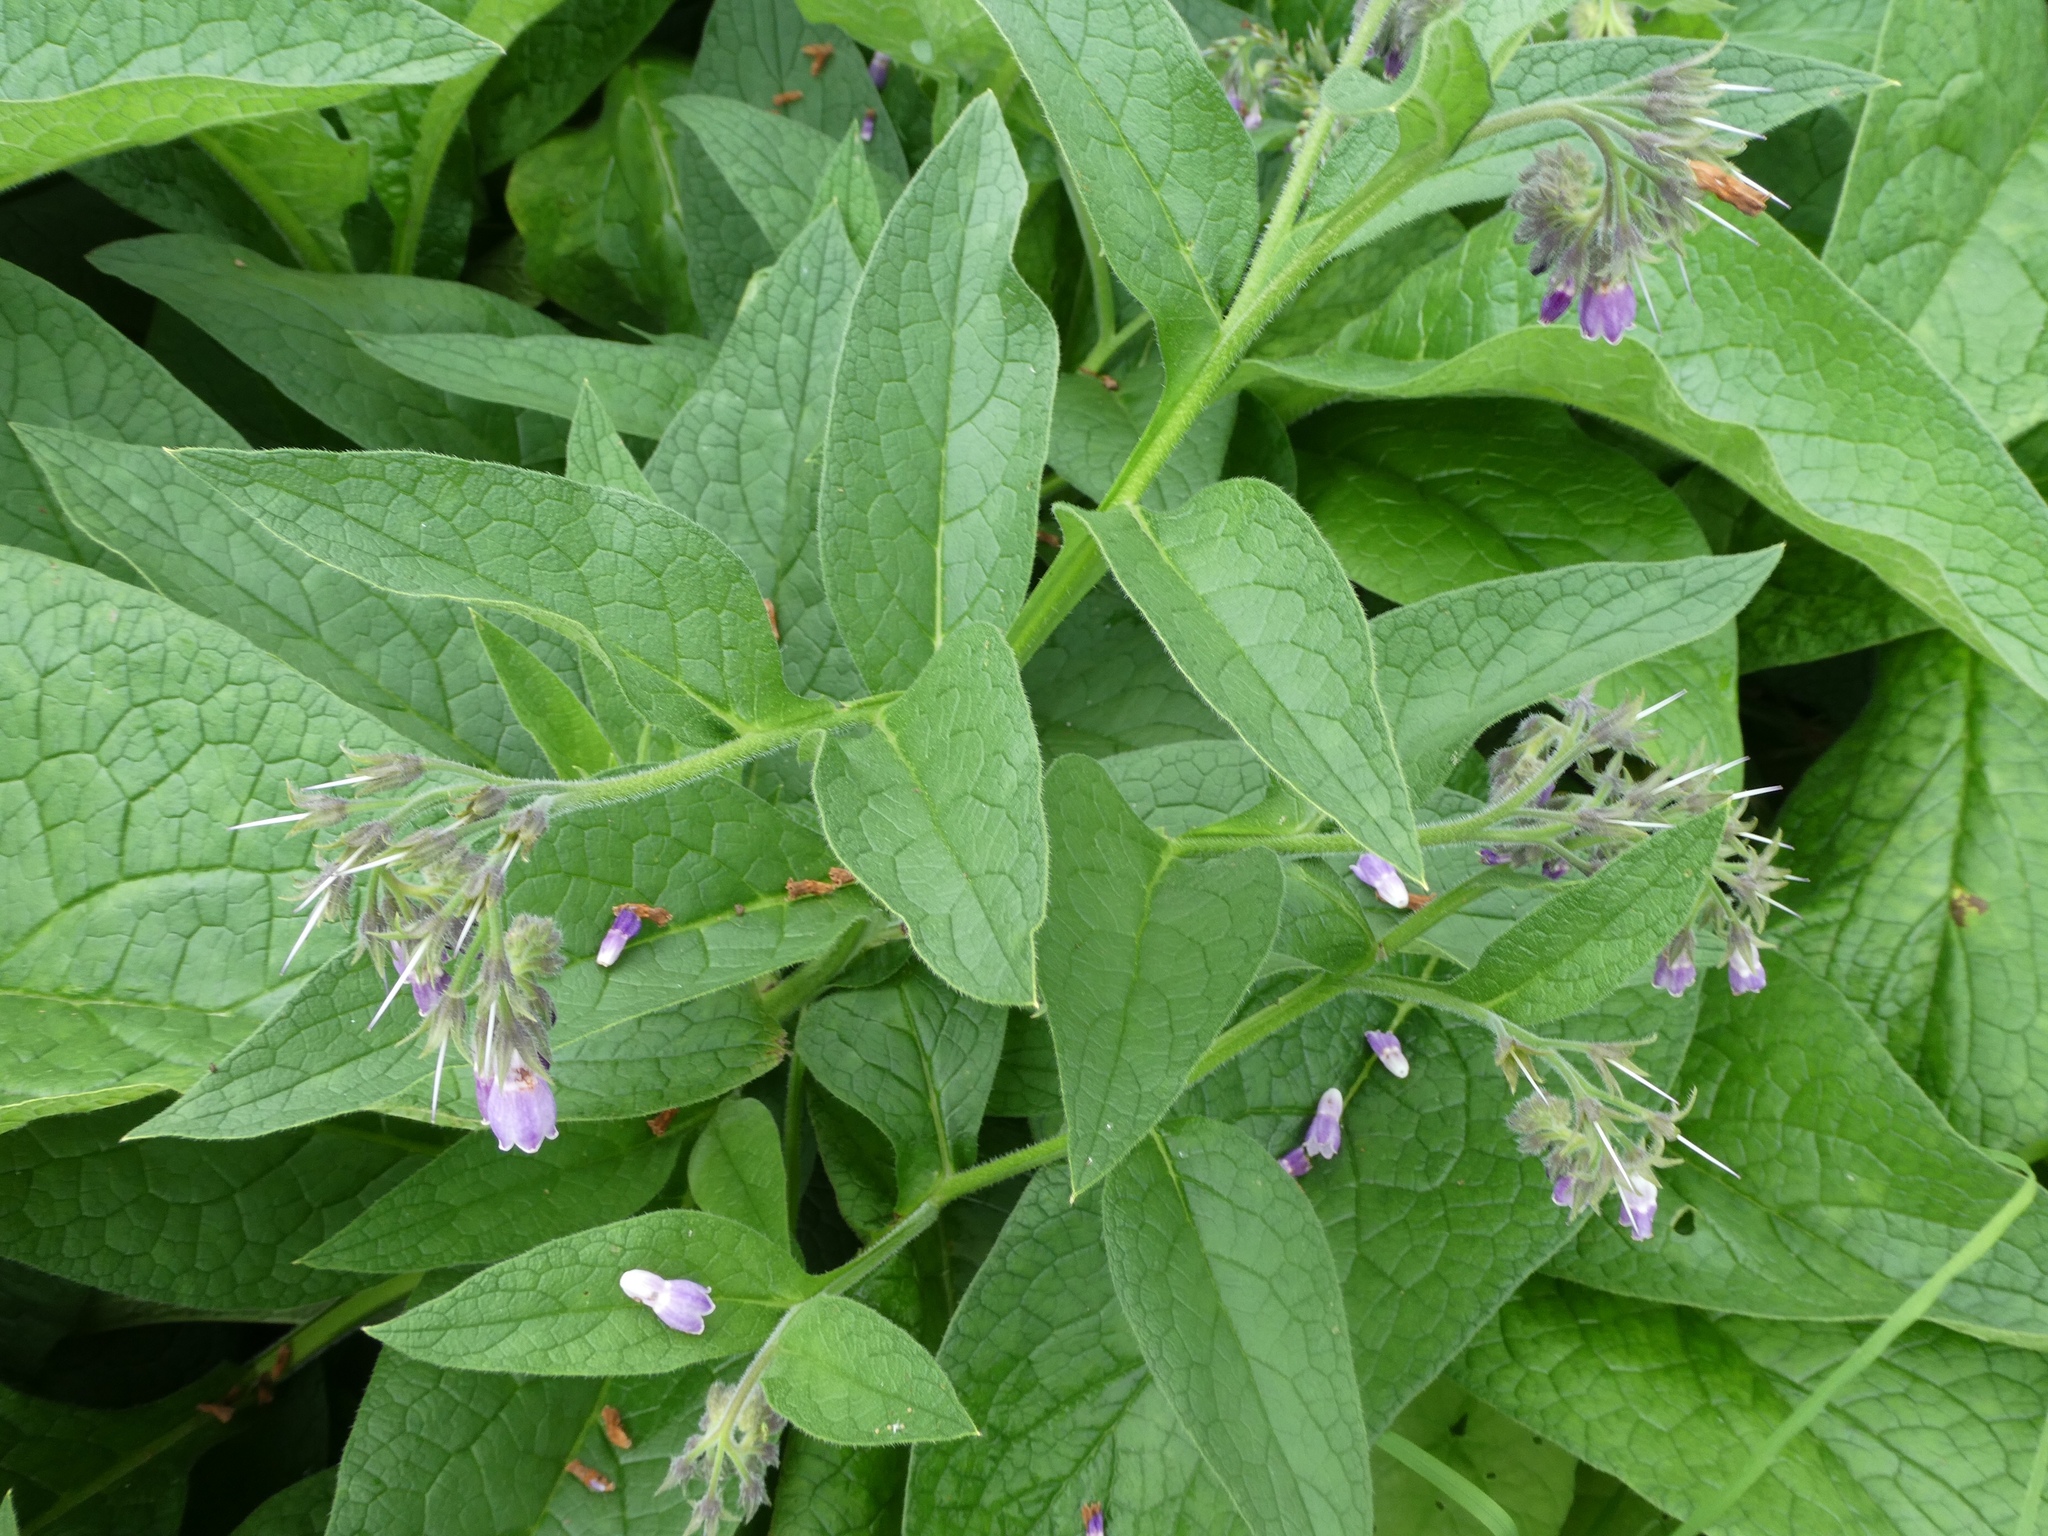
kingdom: Plantae
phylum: Tracheophyta
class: Magnoliopsida
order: Boraginales
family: Boraginaceae
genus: Symphytum
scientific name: Symphytum officinale
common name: Common comfrey
